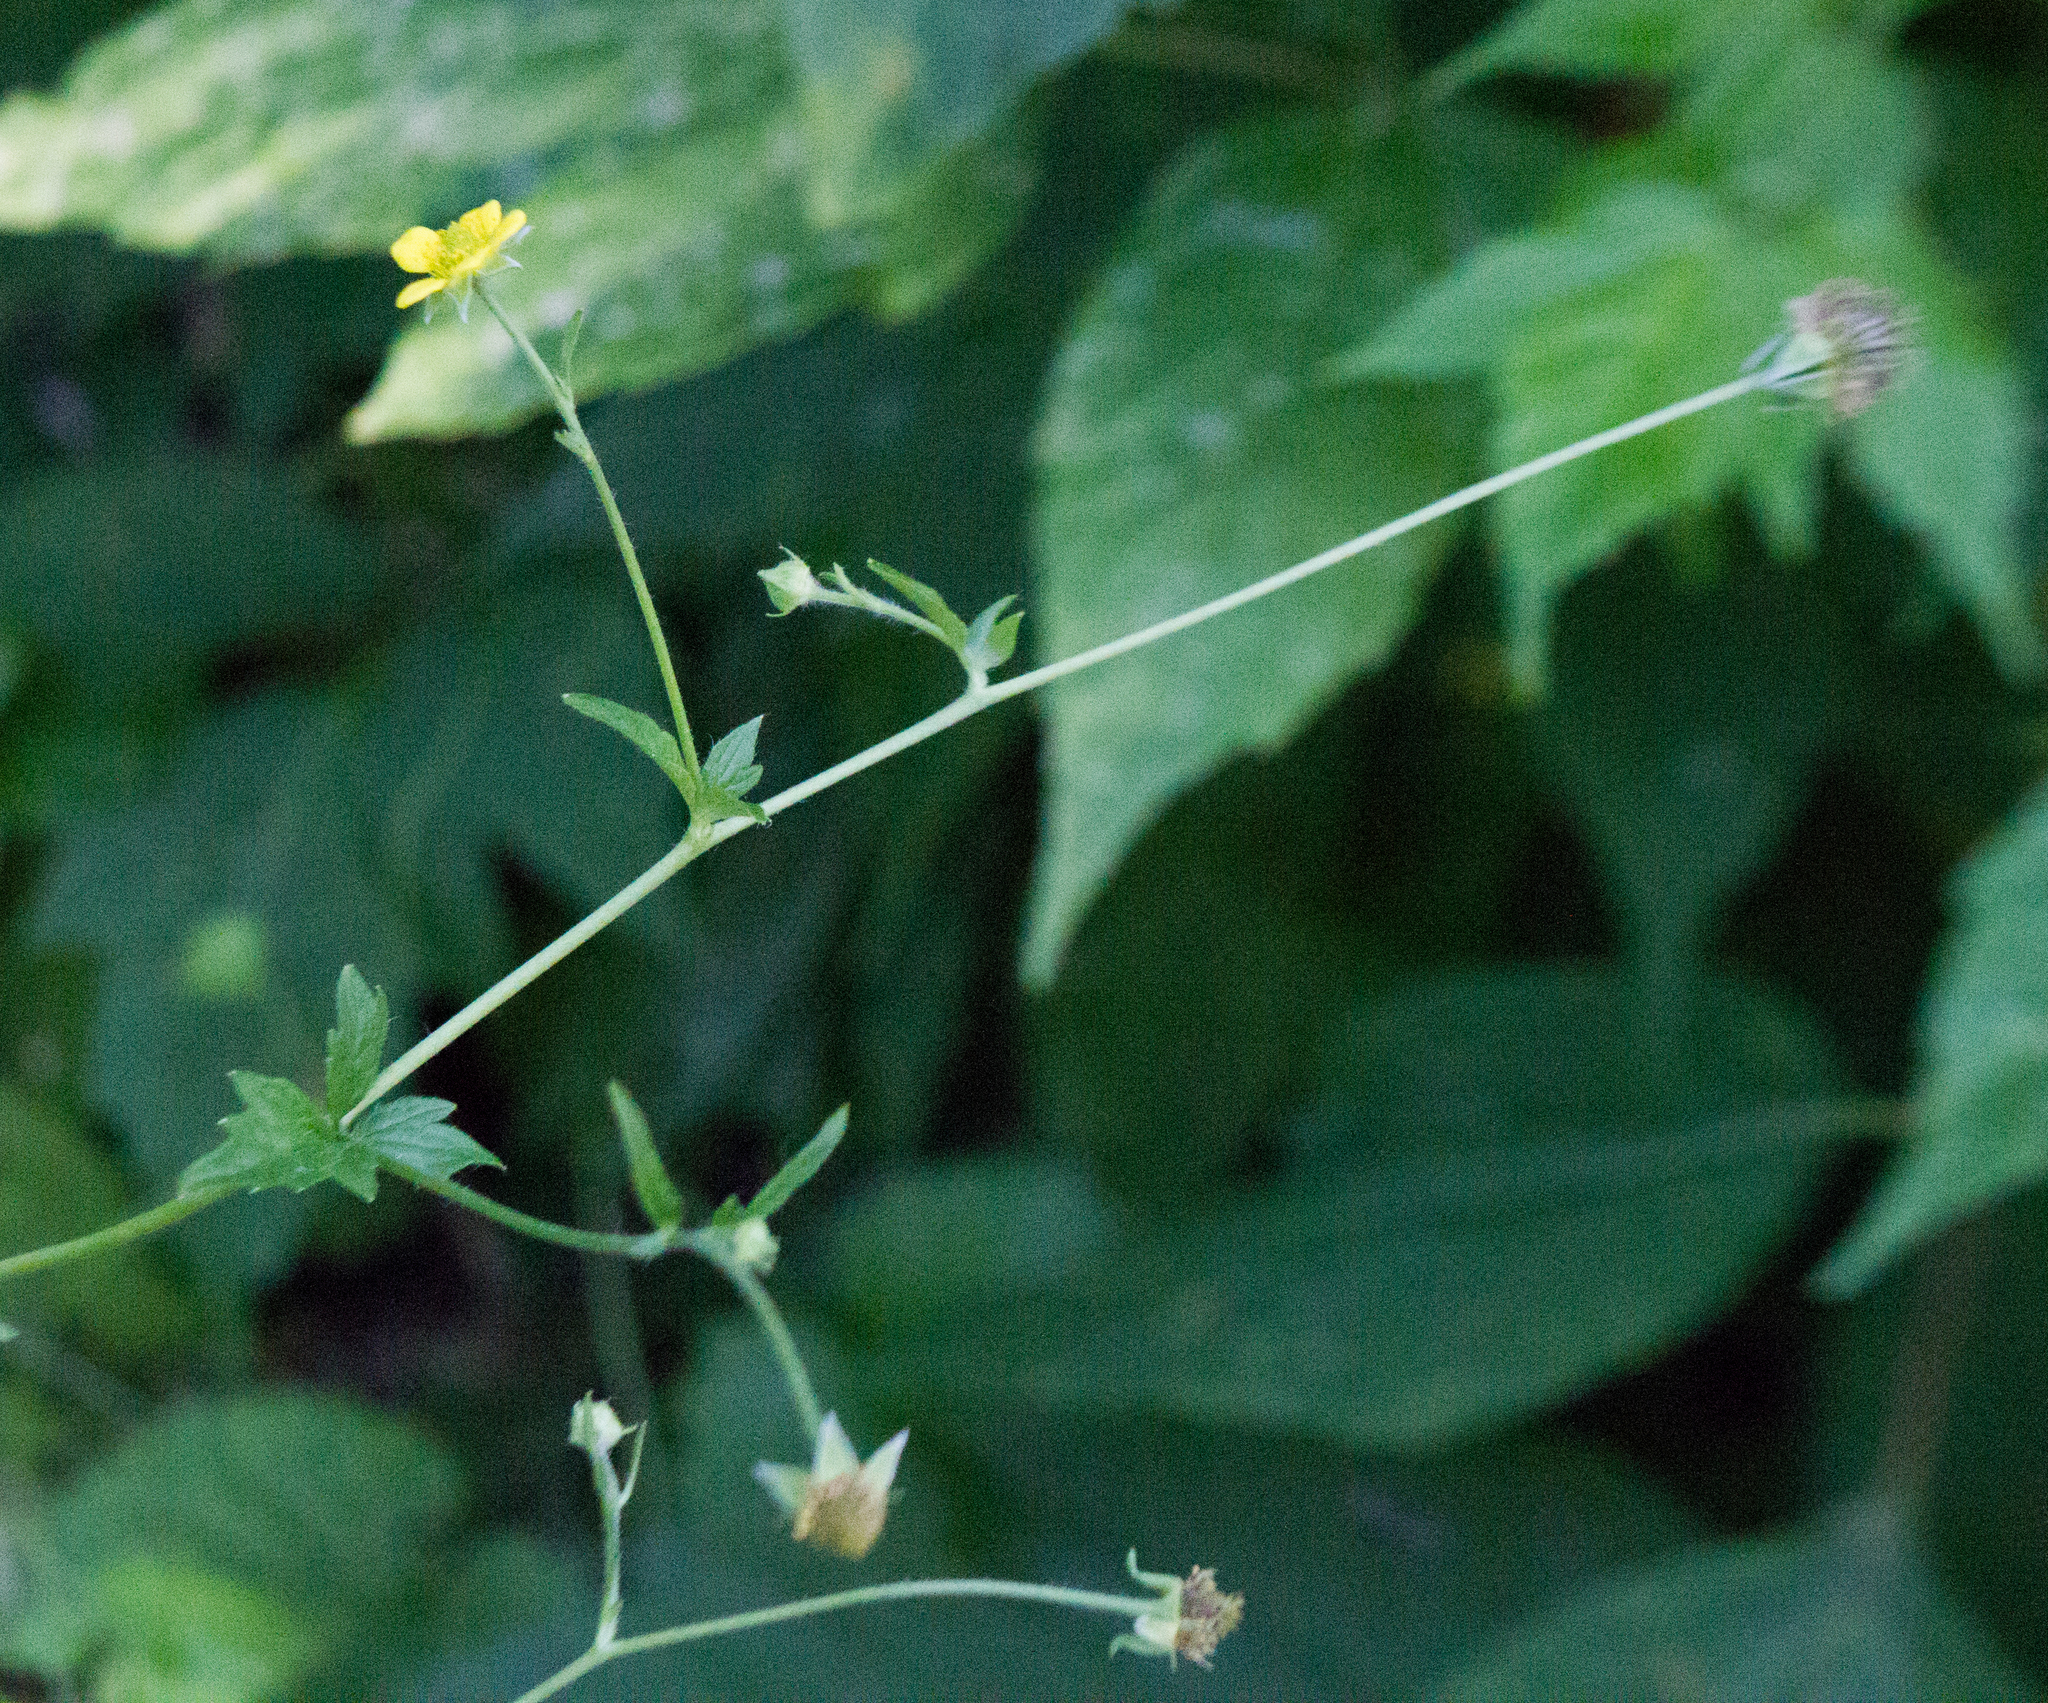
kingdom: Plantae
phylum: Tracheophyta
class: Magnoliopsida
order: Rosales
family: Rosaceae
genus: Geum
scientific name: Geum urbanum
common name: Wood avens
